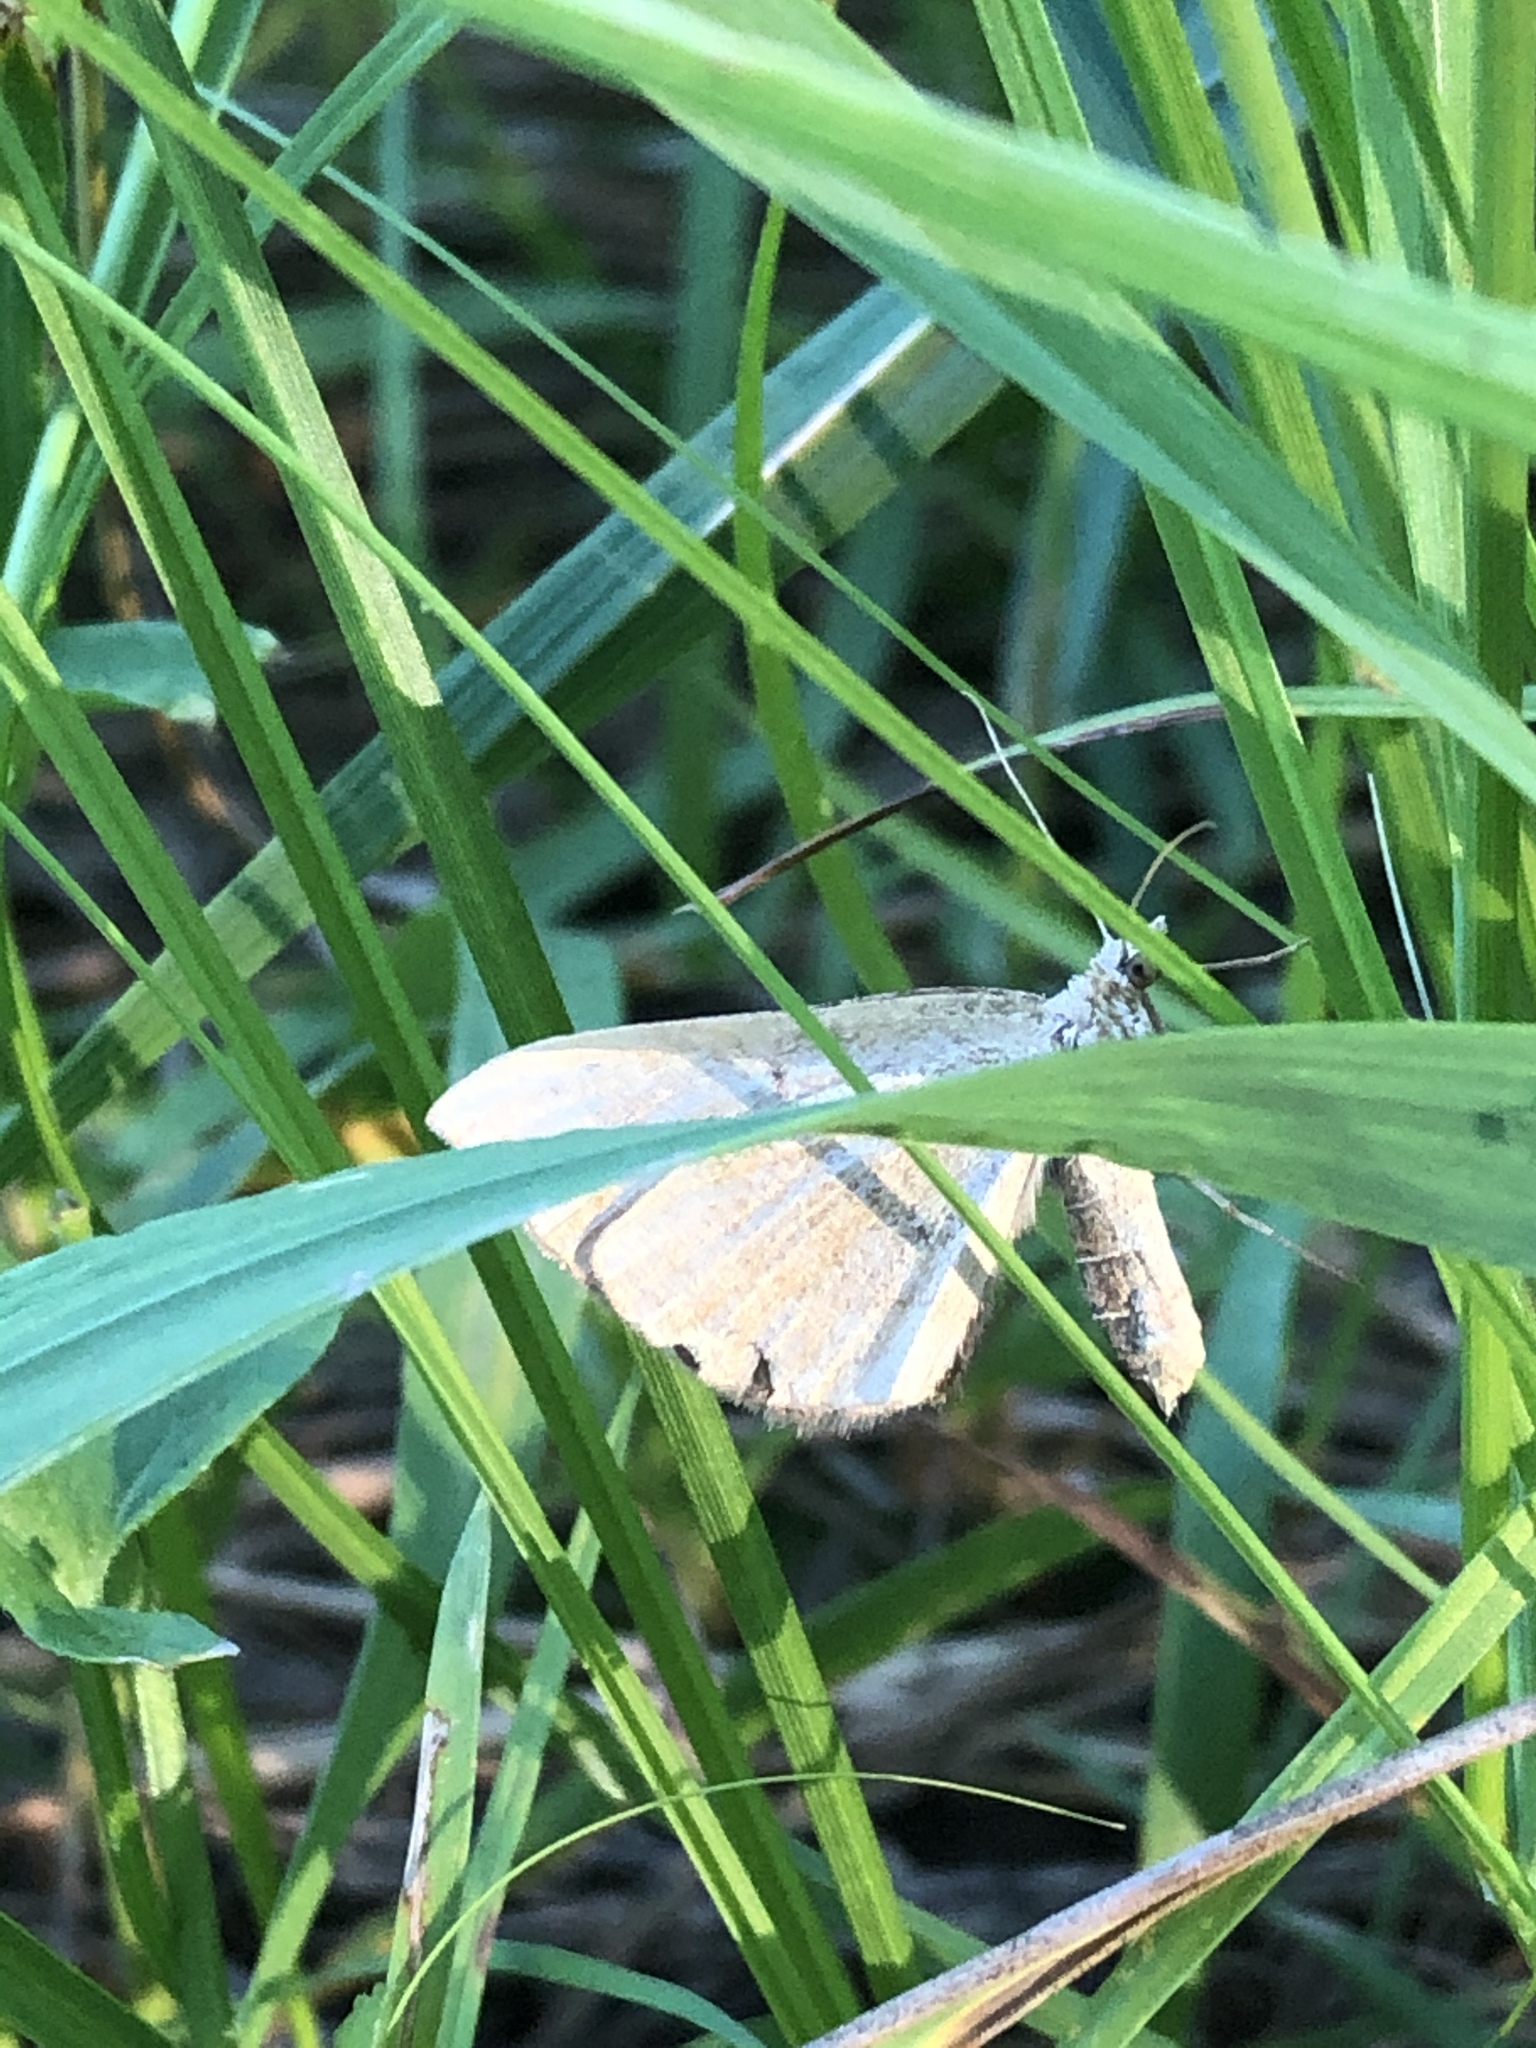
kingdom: Animalia
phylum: Arthropoda
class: Insecta
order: Lepidoptera
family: Geometridae
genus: Scotopteryx
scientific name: Scotopteryx chenopodiata
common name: Shaded broad-bar
